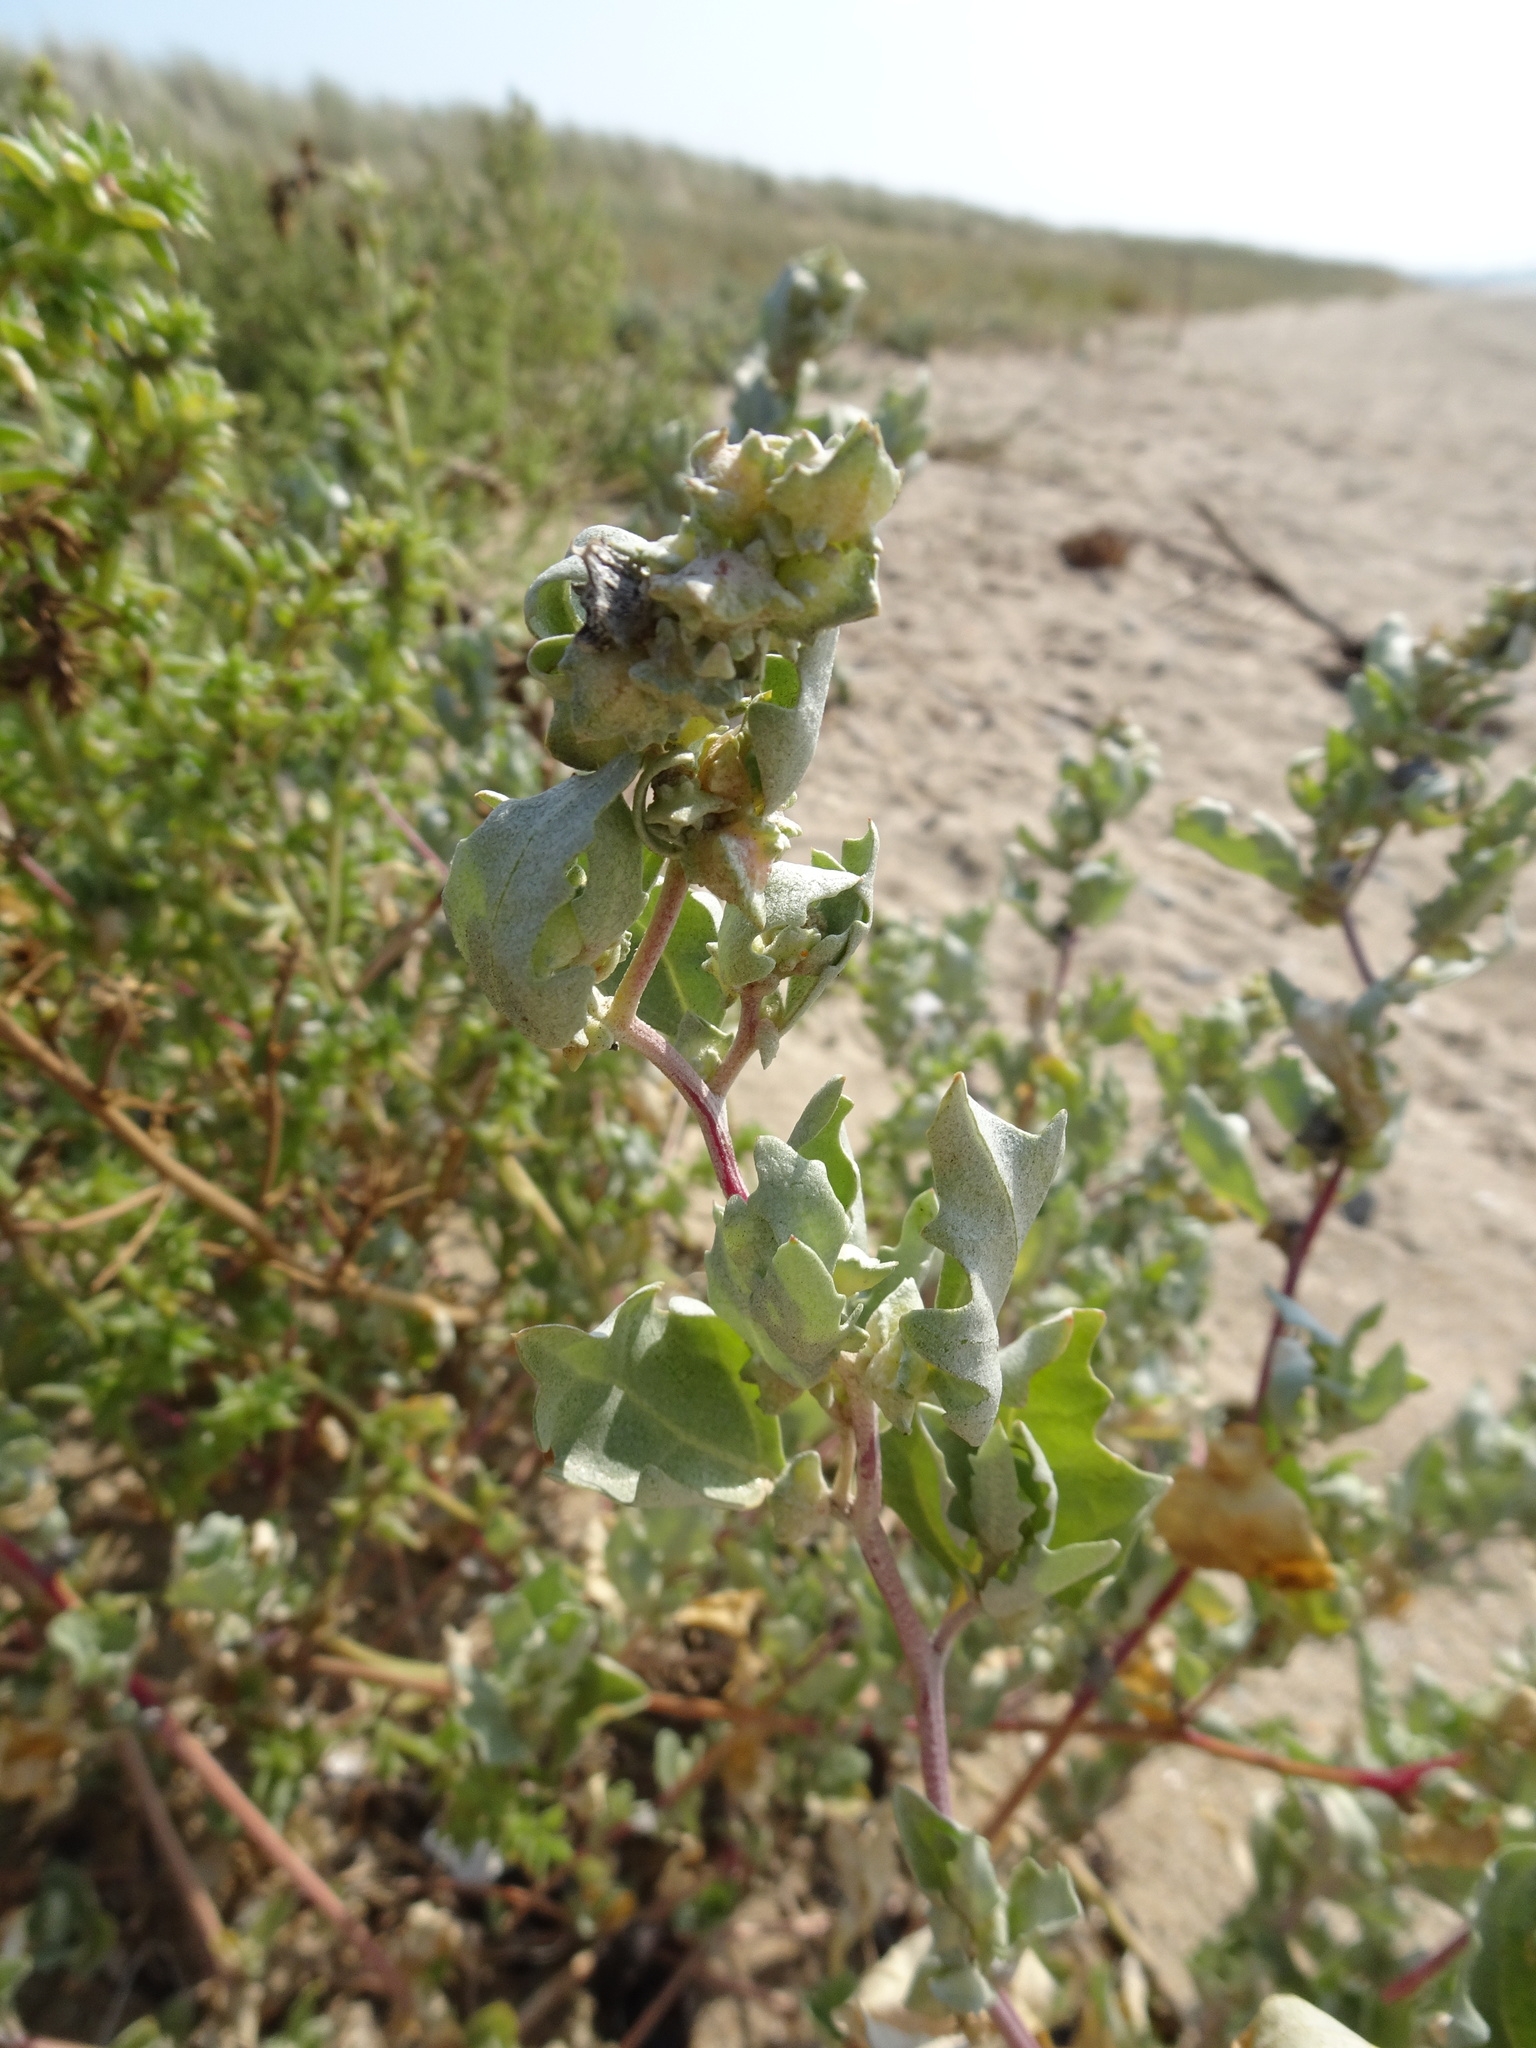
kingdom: Plantae
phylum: Tracheophyta
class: Magnoliopsida
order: Caryophyllales
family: Amaranthaceae
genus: Atriplex
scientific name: Atriplex laciniata
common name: Frosted orache
